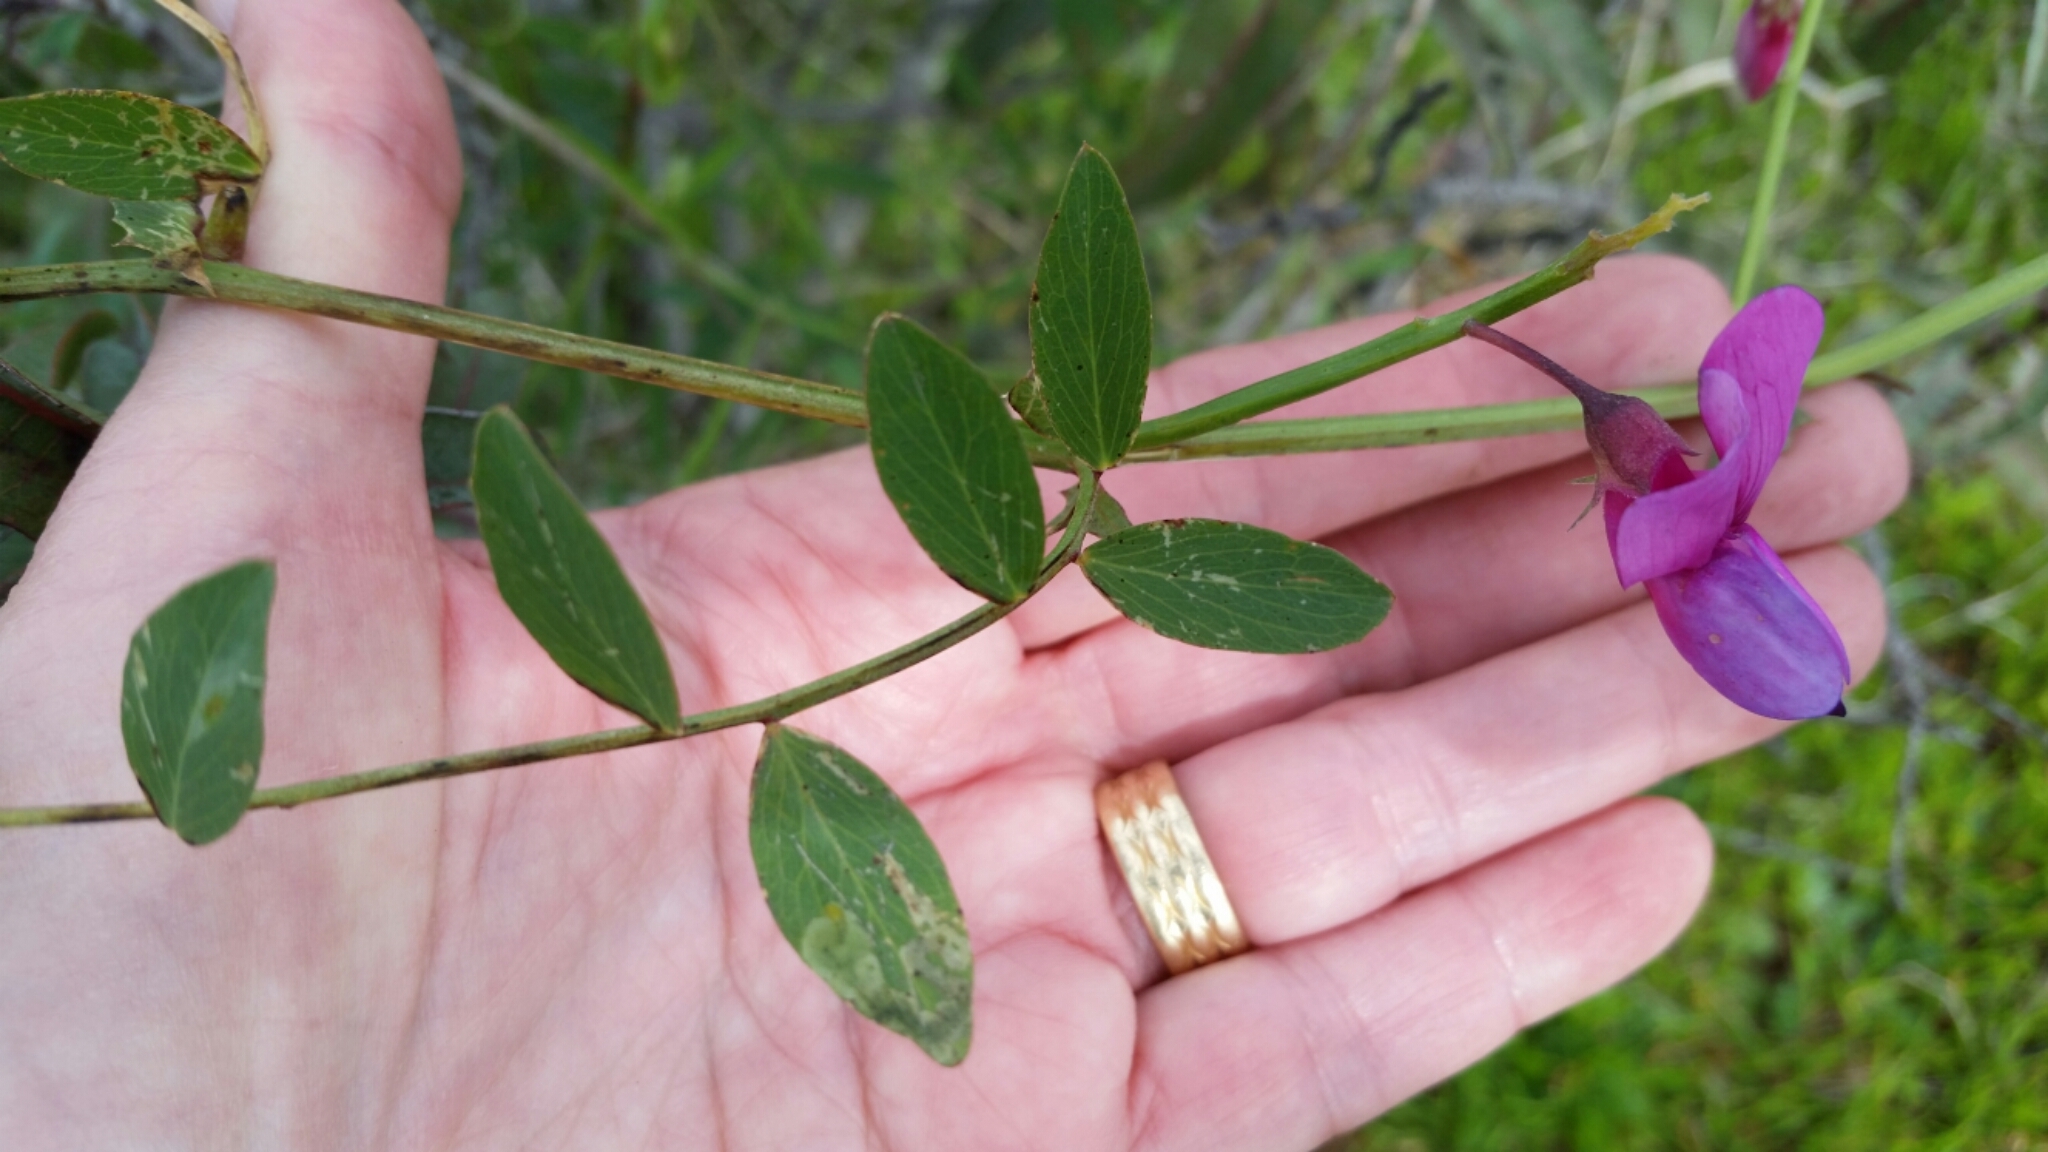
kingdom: Plantae
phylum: Tracheophyta
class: Magnoliopsida
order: Fabales
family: Fabaceae
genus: Lathyrus
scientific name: Lathyrus vestitus
